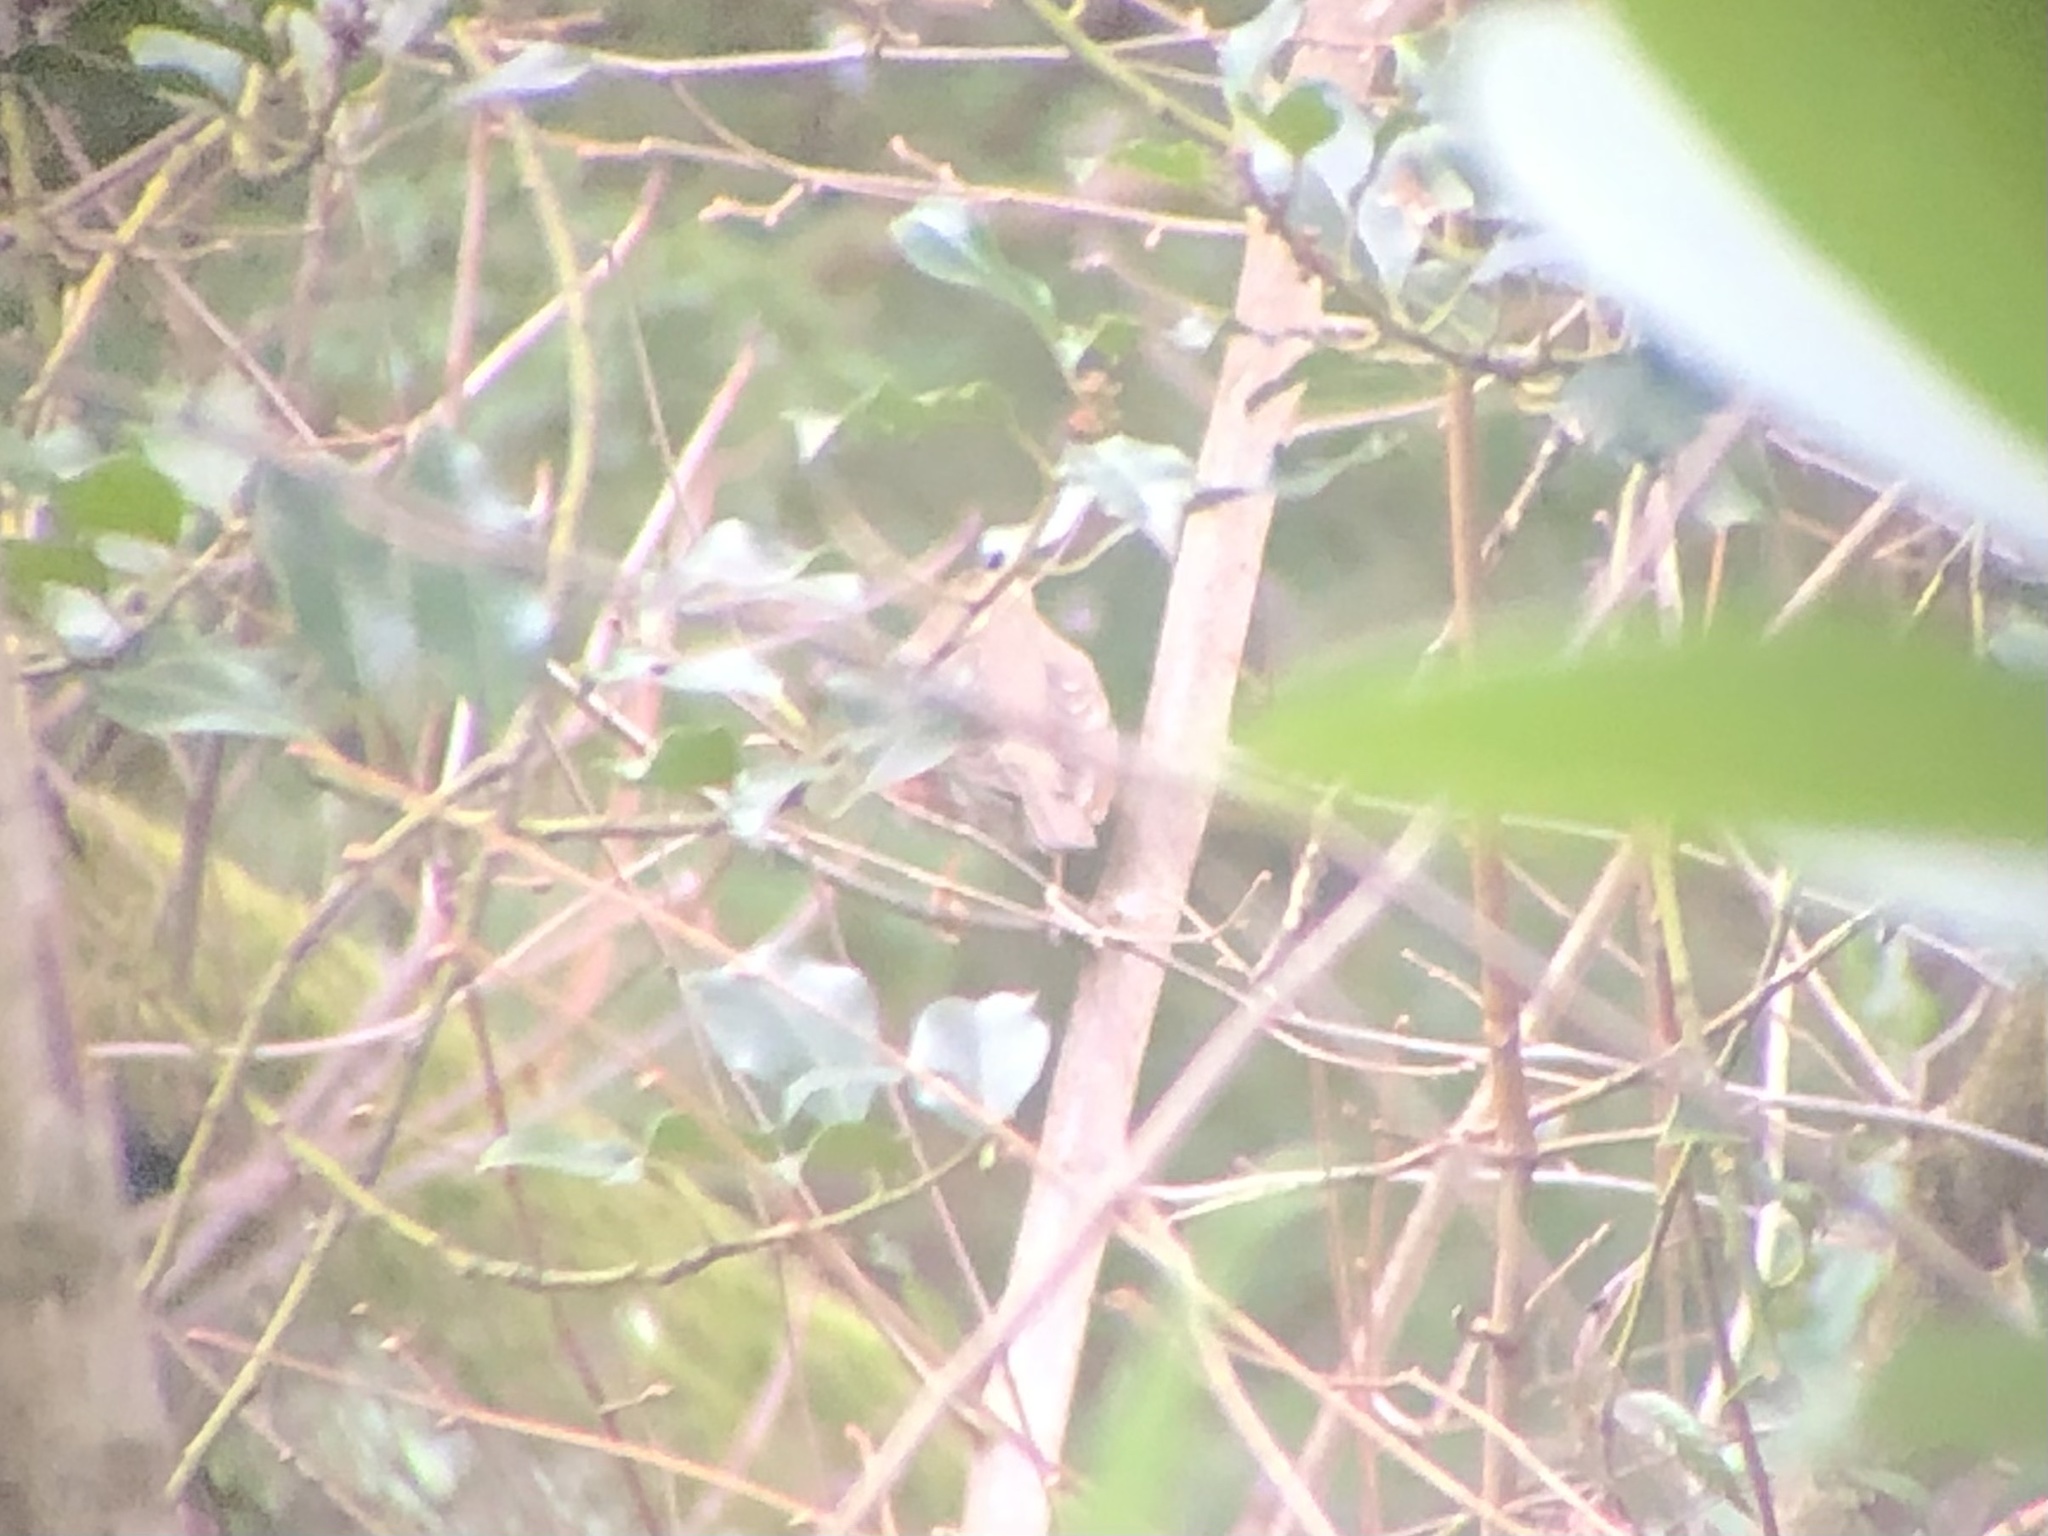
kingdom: Animalia
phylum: Chordata
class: Aves
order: Passeriformes
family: Turdidae
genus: Turdus
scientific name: Turdus iliacus
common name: Redwing
